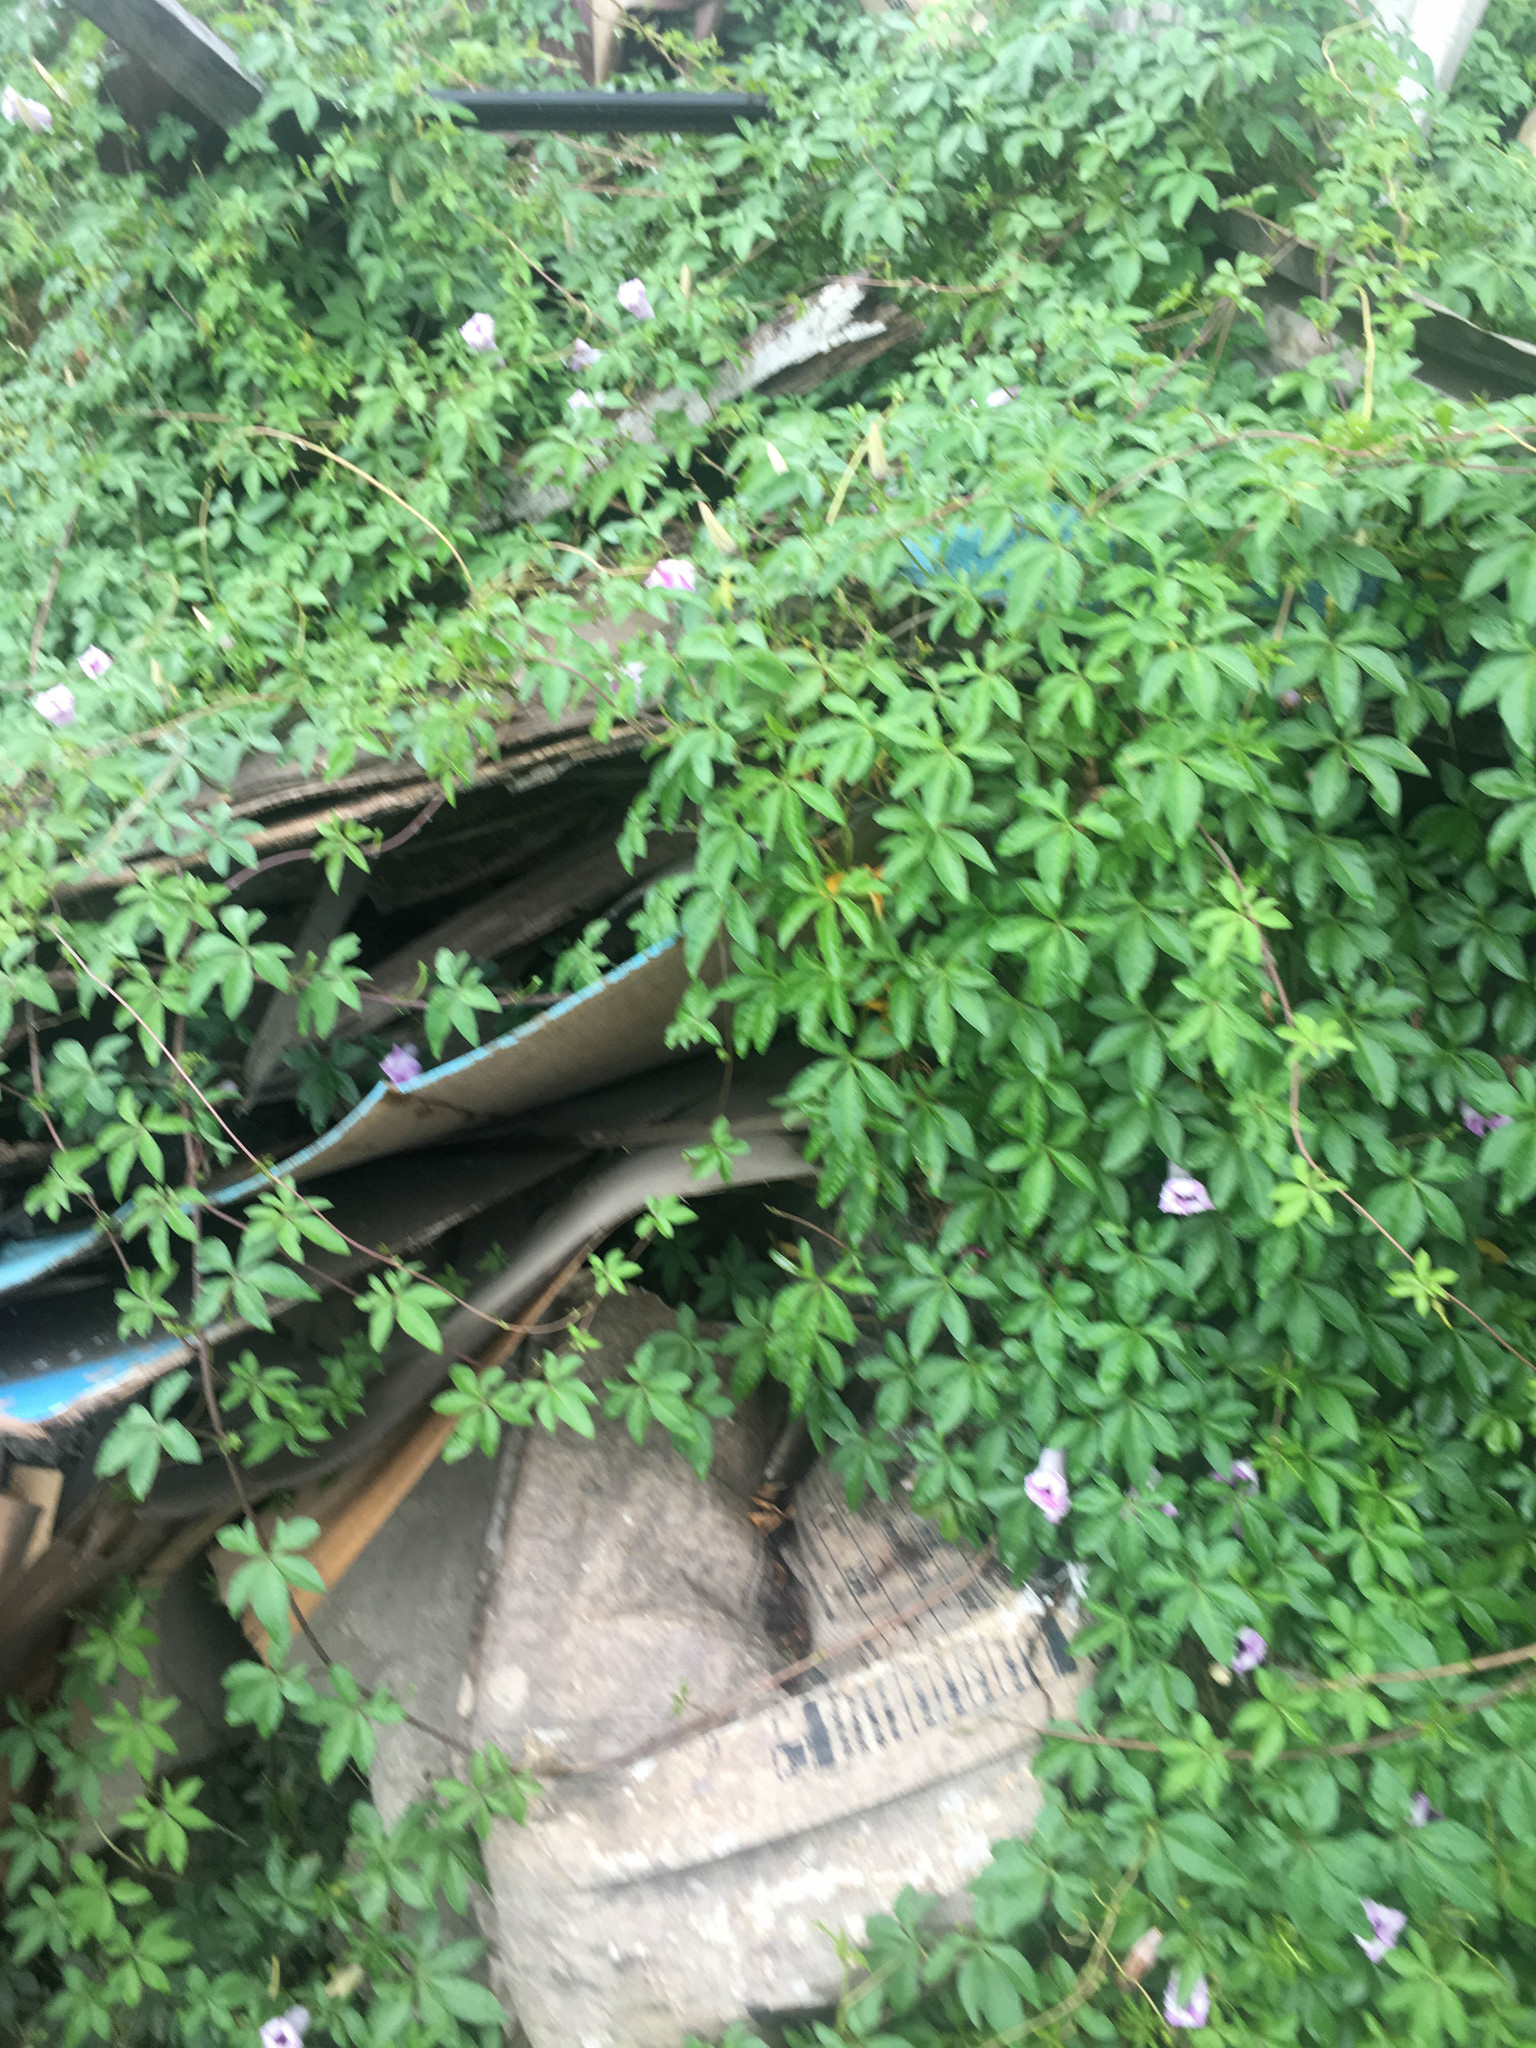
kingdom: Plantae
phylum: Tracheophyta
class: Magnoliopsida
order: Solanales
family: Convolvulaceae
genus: Ipomoea
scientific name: Ipomoea cairica
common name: Mile a minute vine
